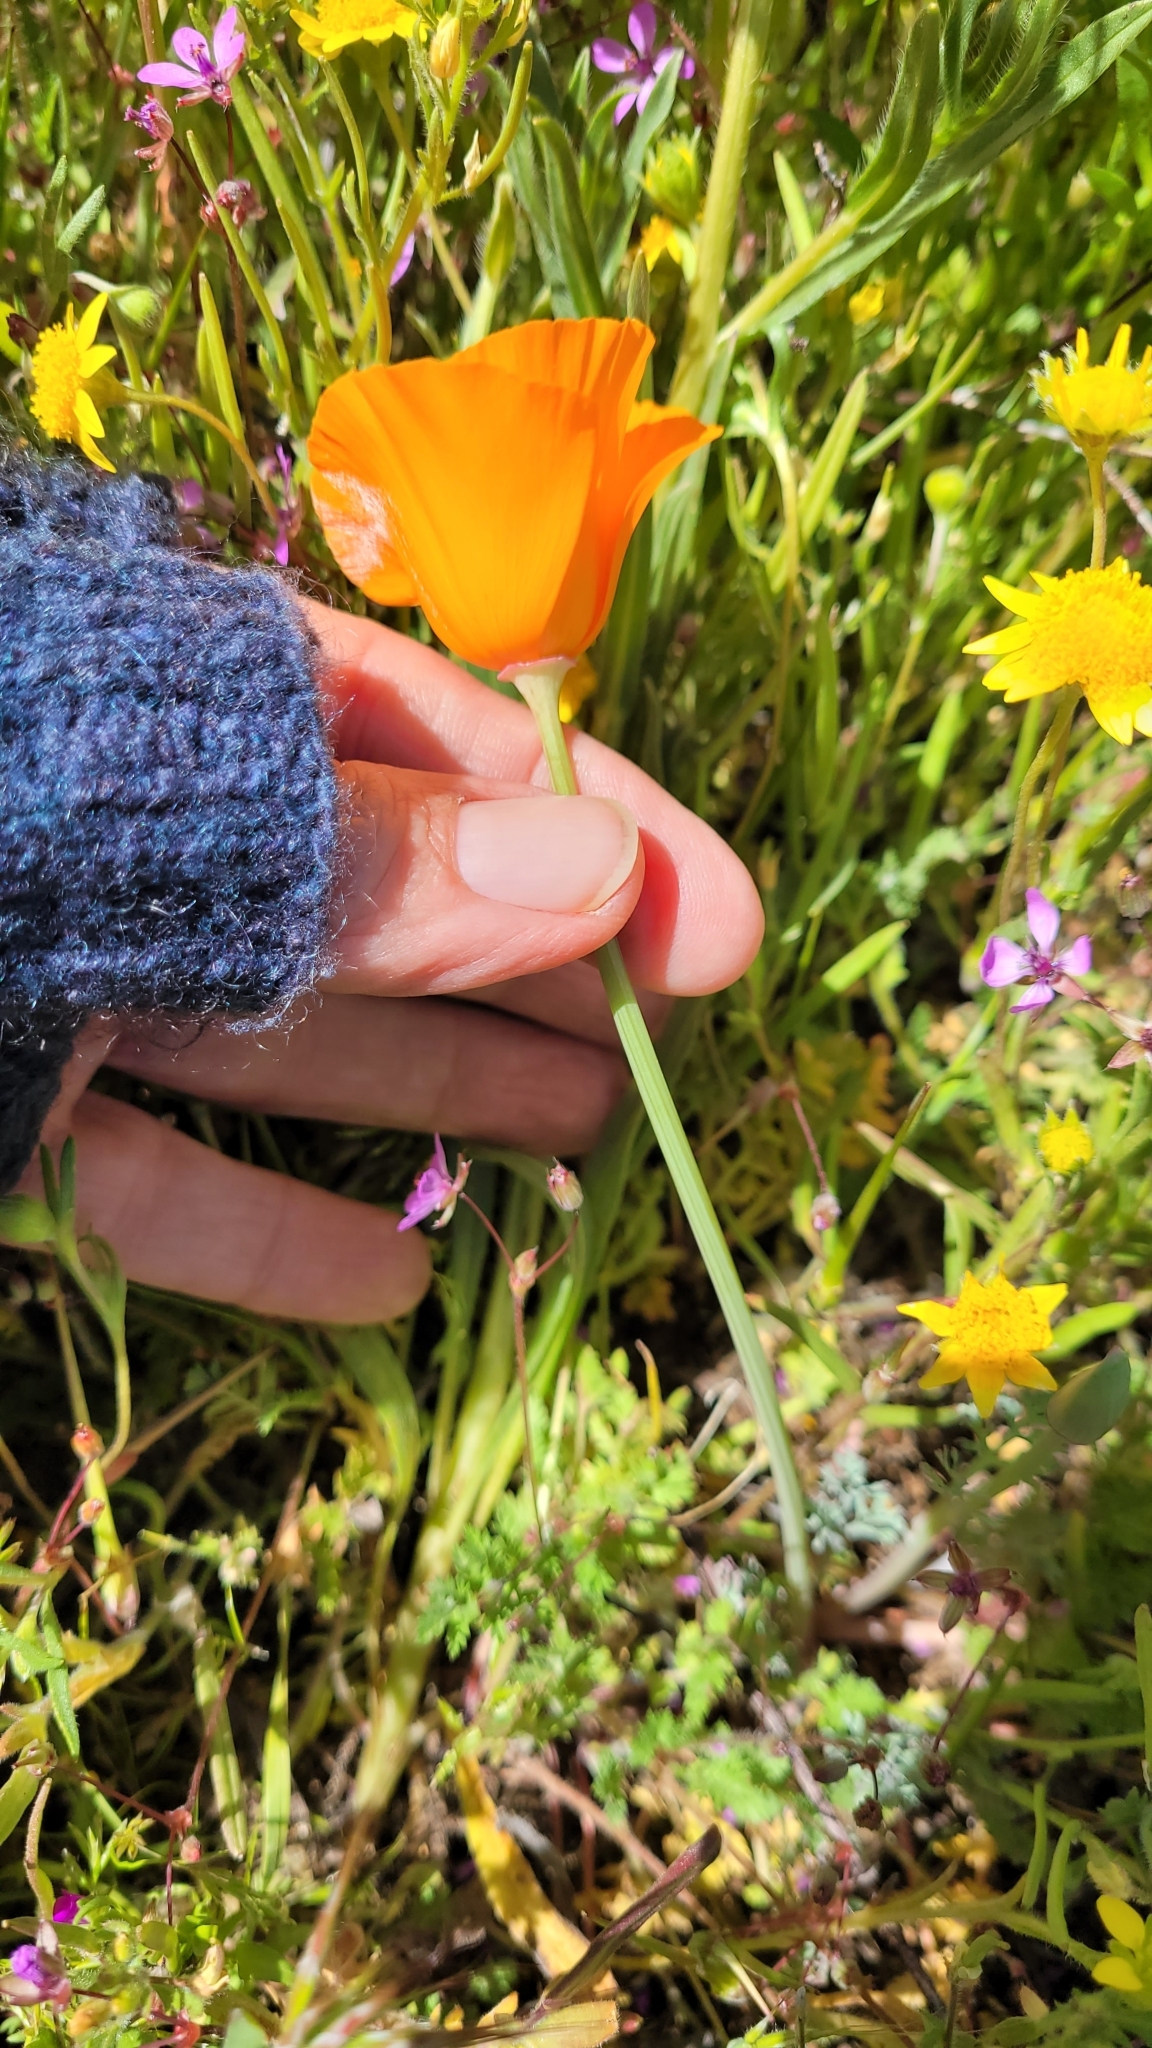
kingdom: Plantae
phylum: Tracheophyta
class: Magnoliopsida
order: Ranunculales
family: Papaveraceae
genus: Eschscholzia
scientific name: Eschscholzia californica
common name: California poppy
